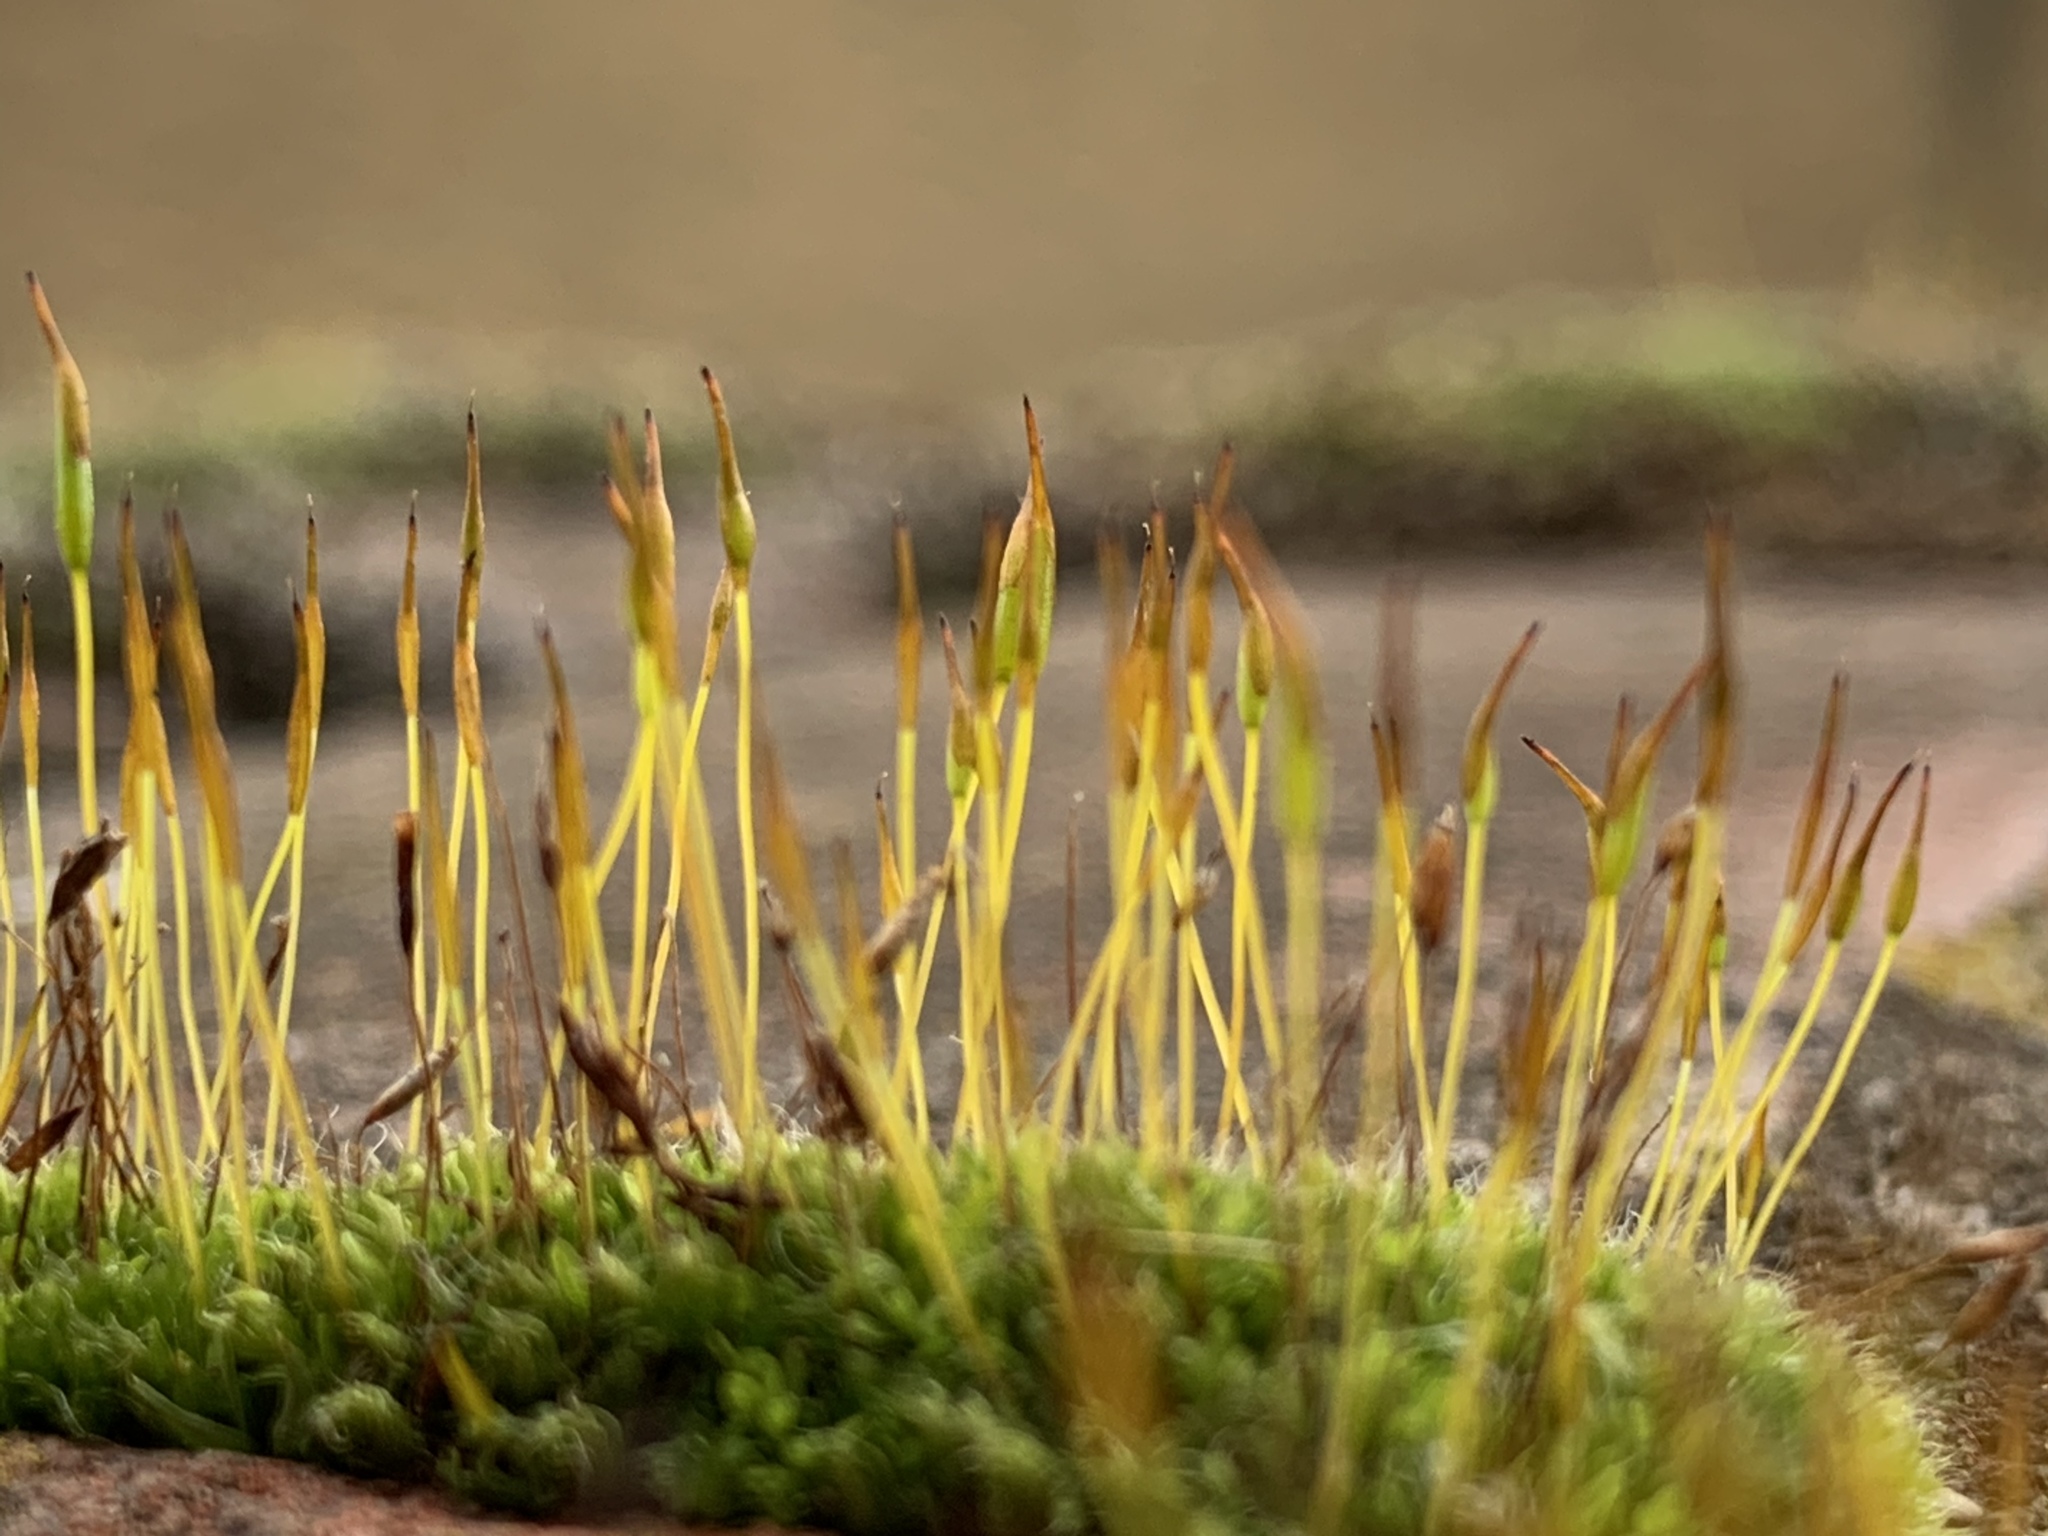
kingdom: Plantae
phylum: Bryophyta
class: Bryopsida
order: Pottiales
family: Pottiaceae
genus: Tortula
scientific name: Tortula muralis
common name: Wall screw-moss
